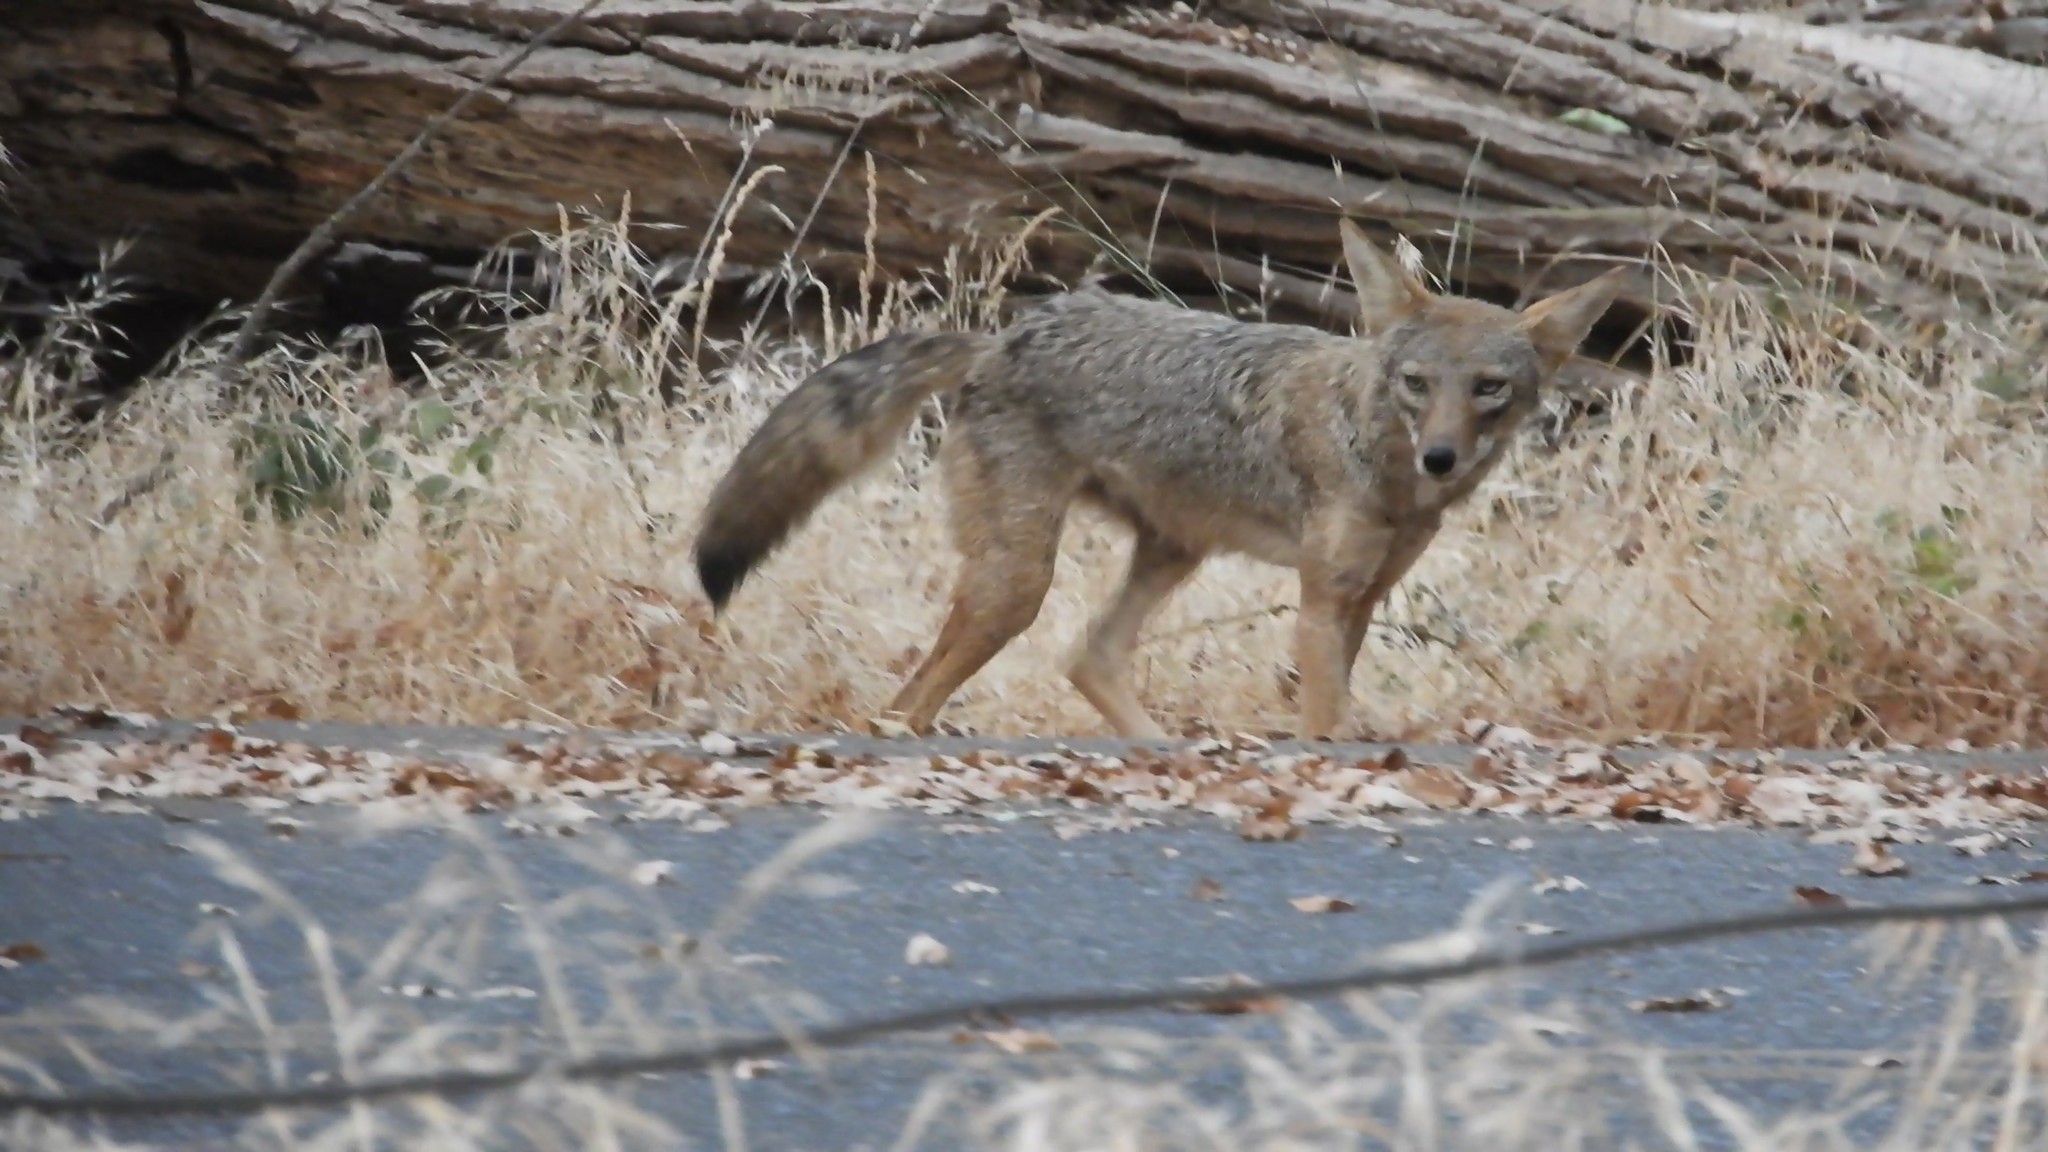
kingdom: Animalia
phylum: Chordata
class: Mammalia
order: Carnivora
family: Canidae
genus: Canis
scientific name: Canis latrans
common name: Coyote
